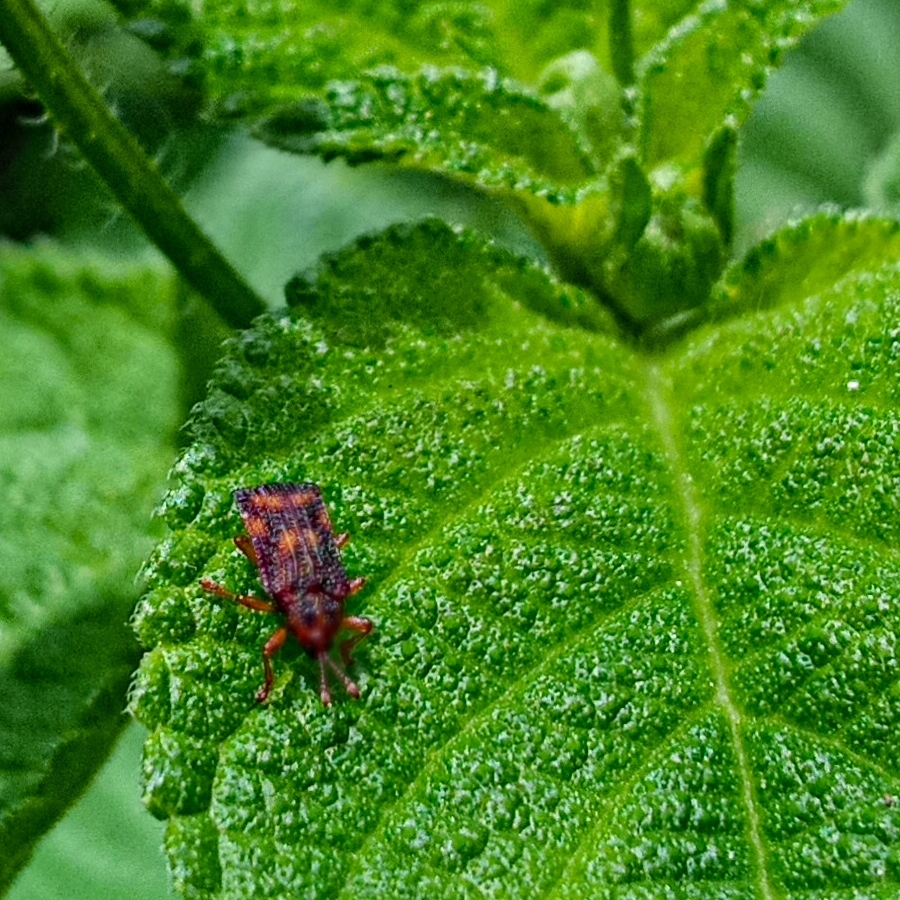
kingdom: Animalia
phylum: Arthropoda
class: Insecta
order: Coleoptera
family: Chrysomelidae
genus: Uroplata
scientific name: Uroplata girardi
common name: Lantana leafminer
